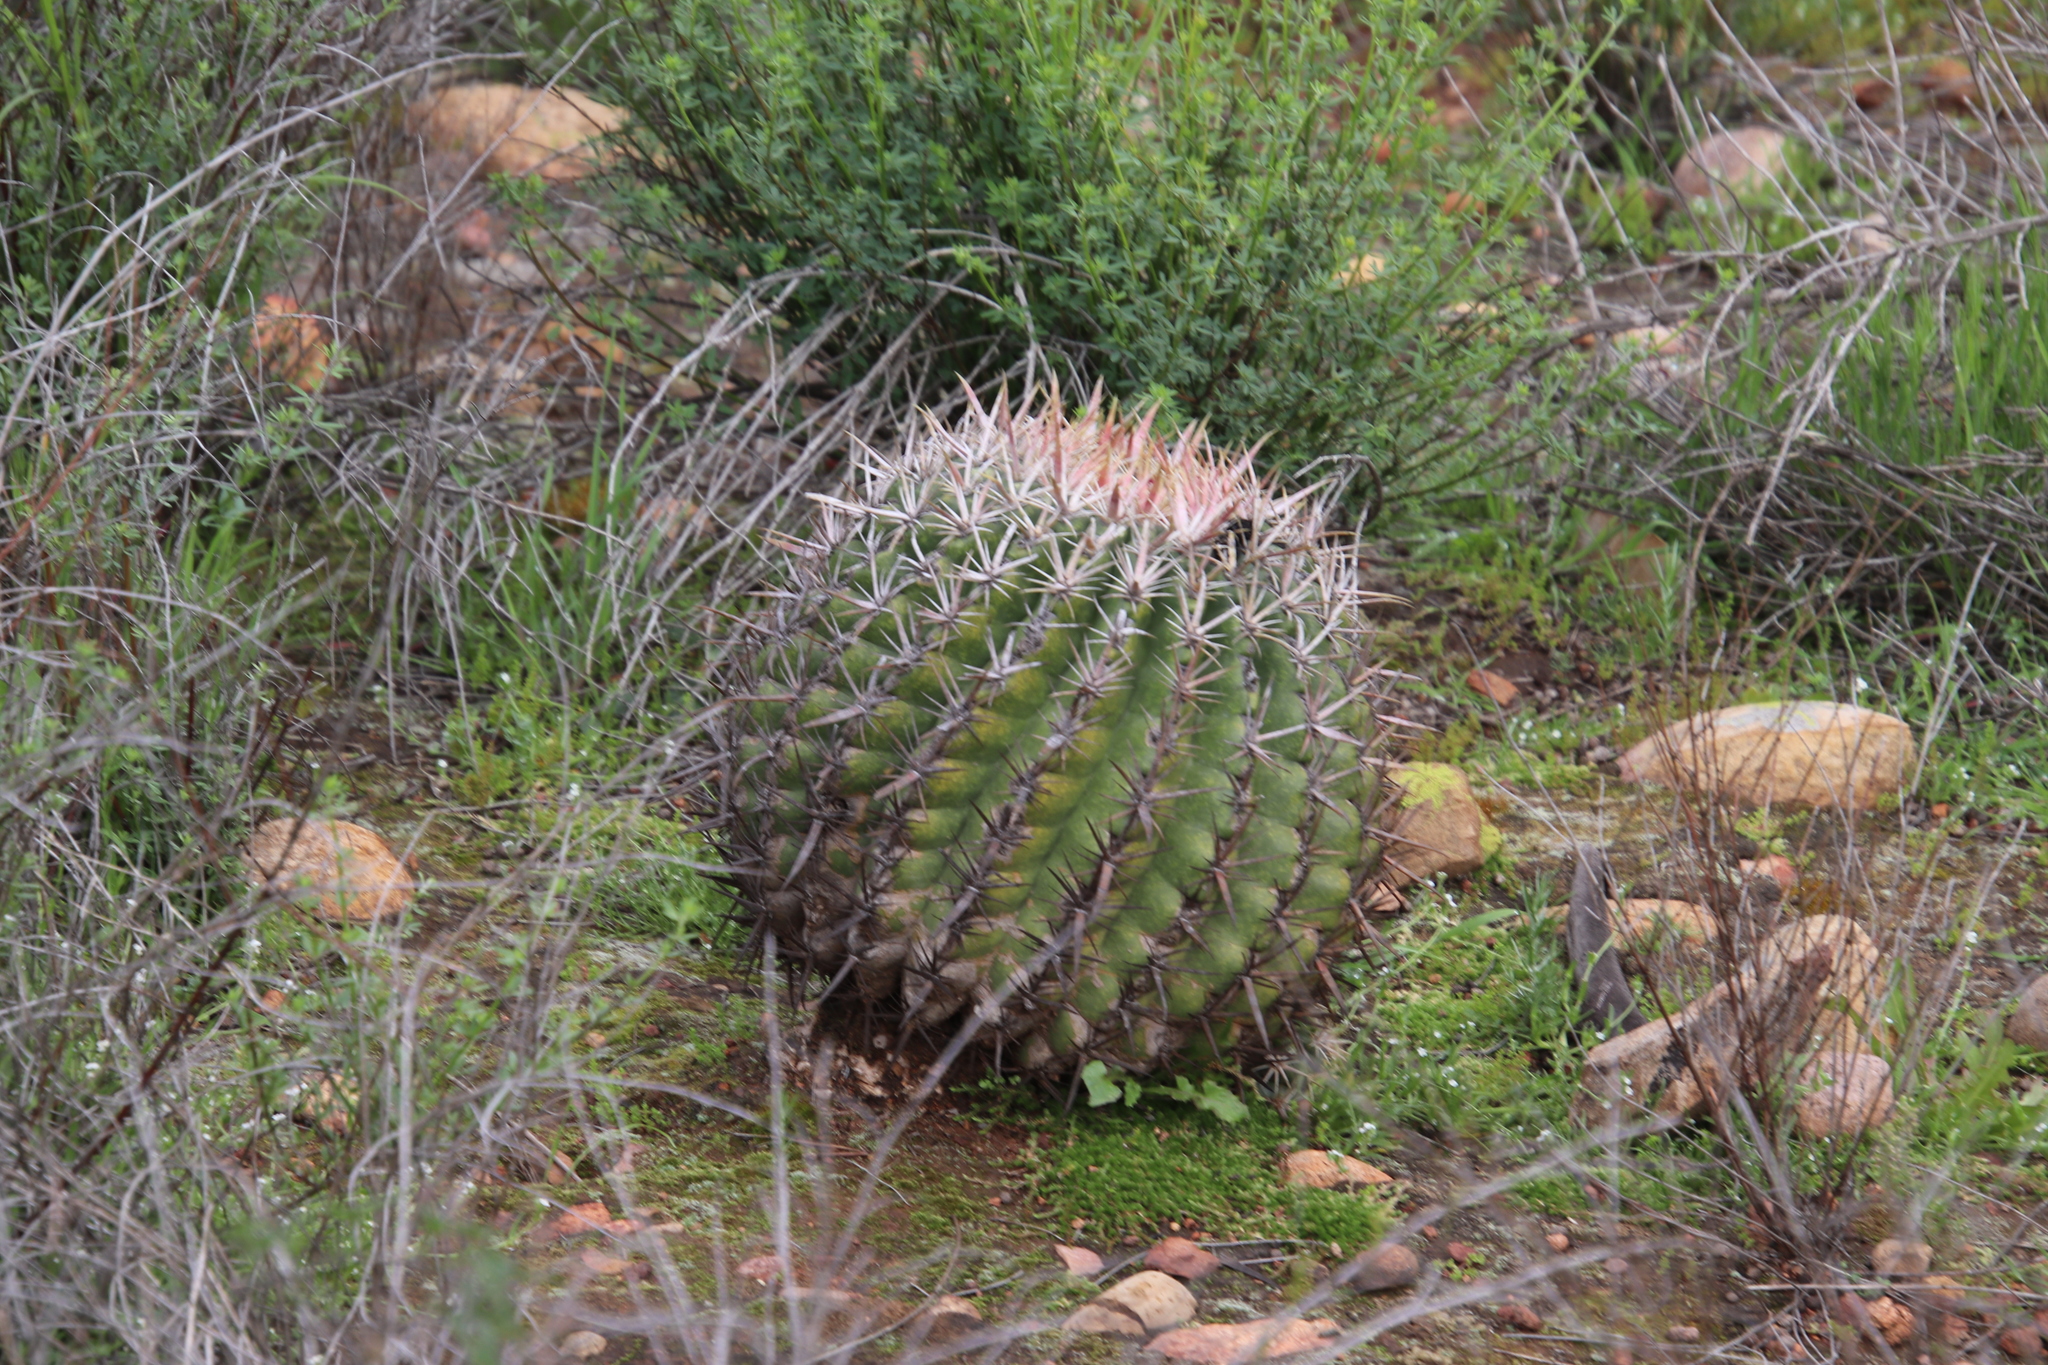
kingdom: Plantae
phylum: Tracheophyta
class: Magnoliopsida
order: Caryophyllales
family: Cactaceae
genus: Ferocactus
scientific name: Ferocactus viridescens
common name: San diego barrel cactus
